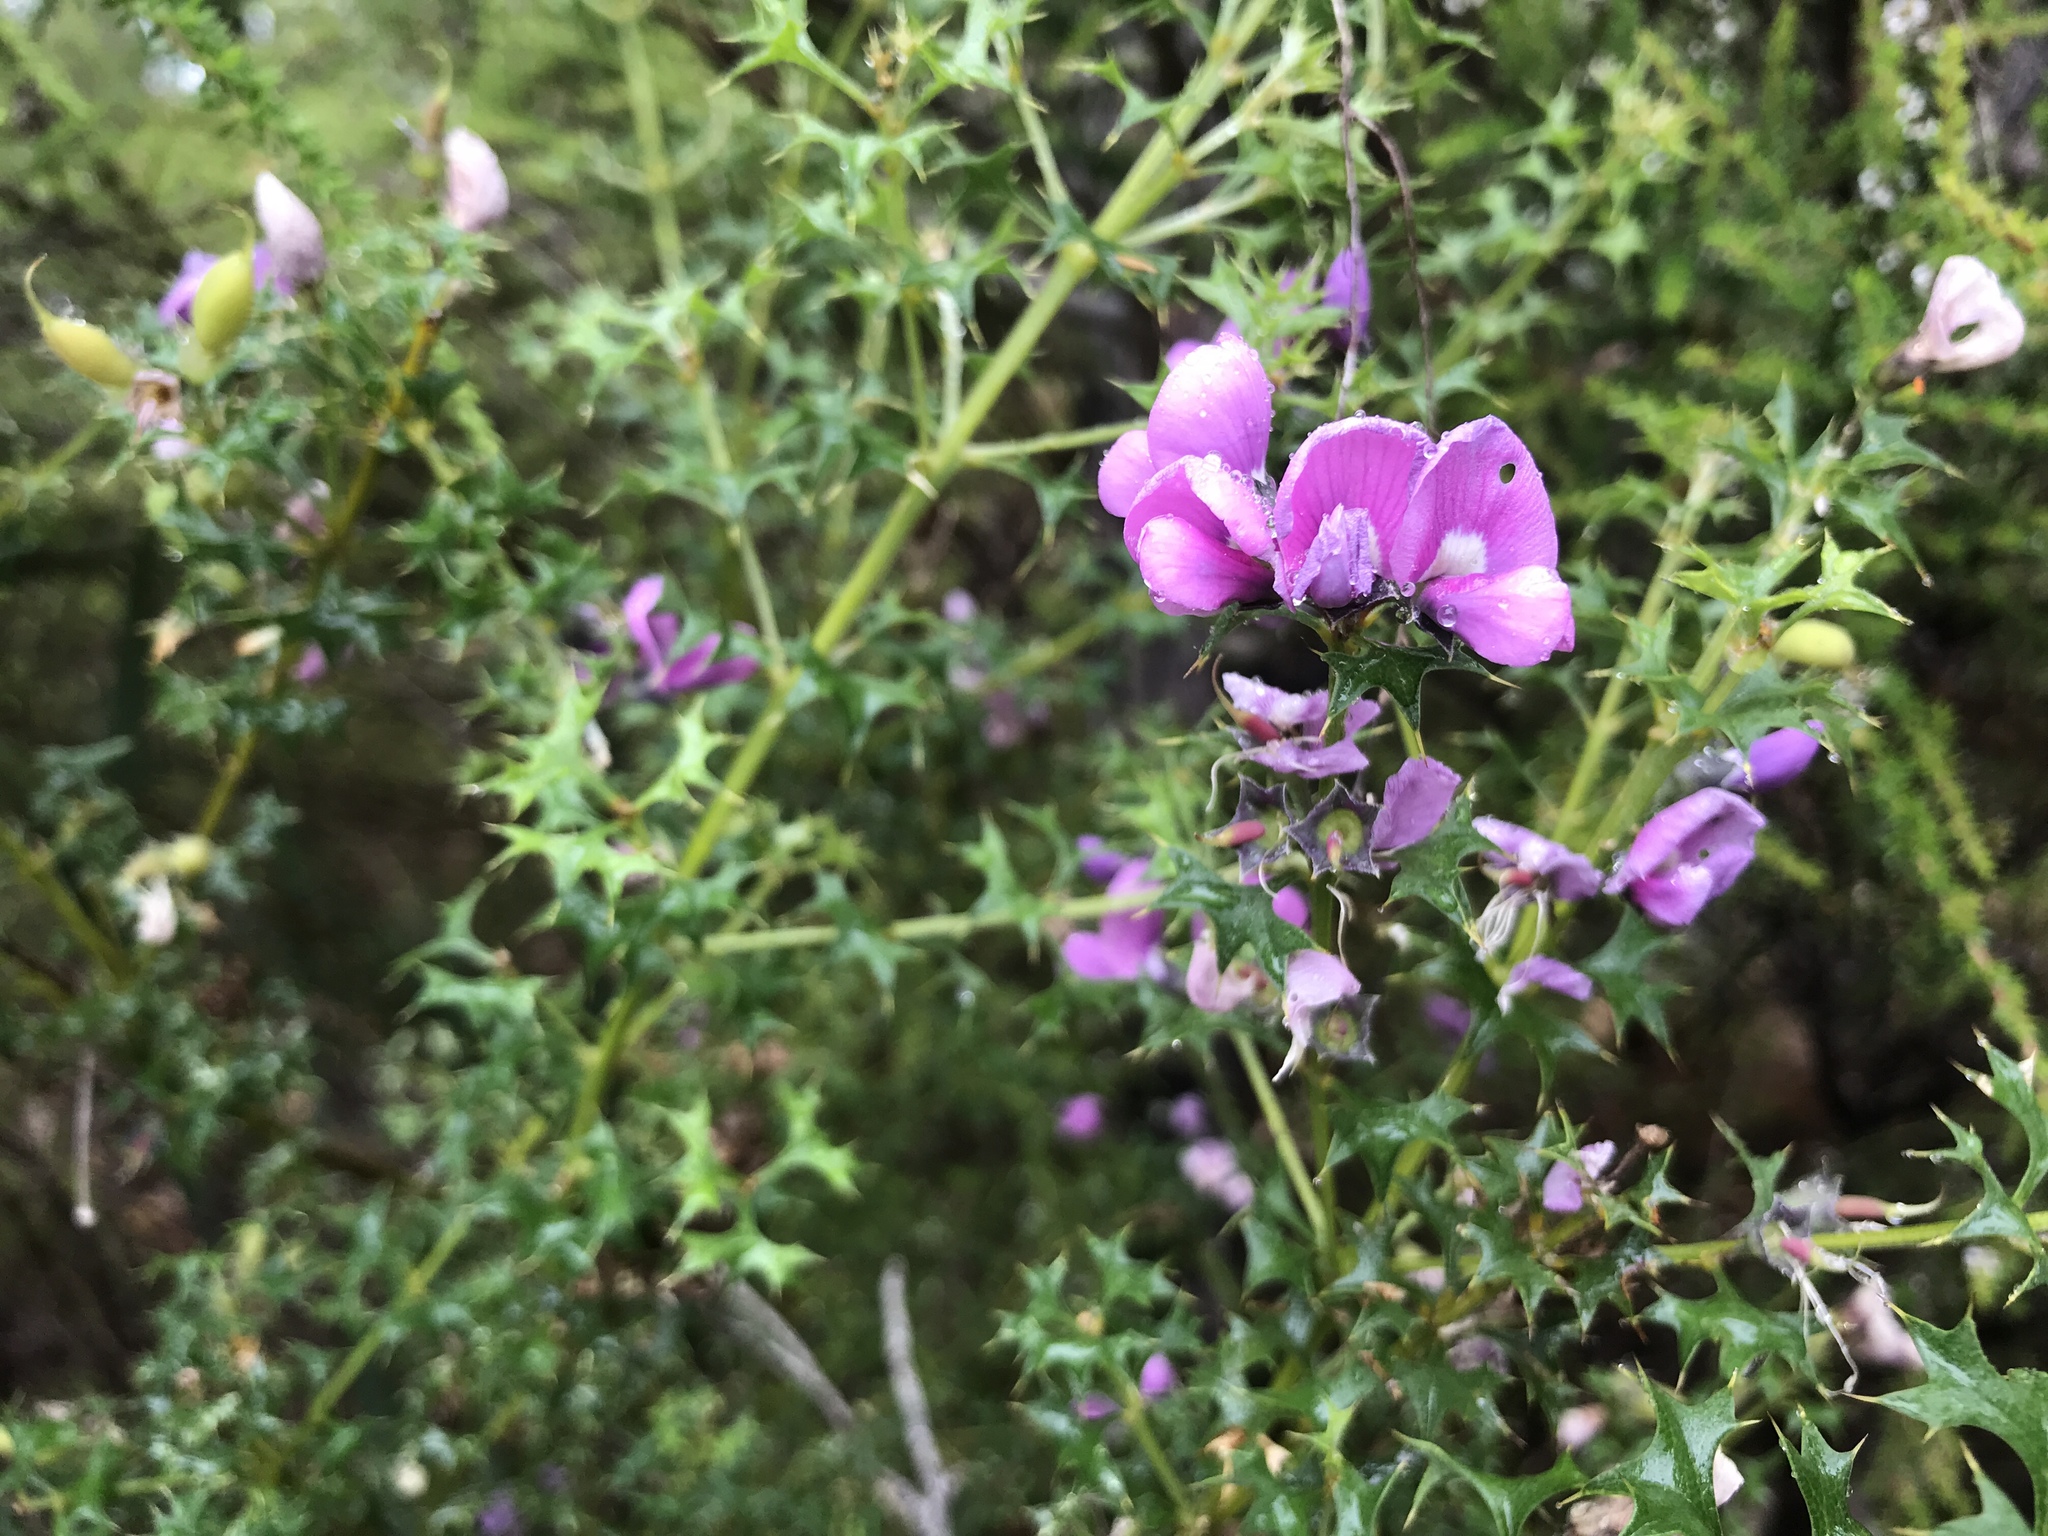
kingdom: Plantae
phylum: Tracheophyta
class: Magnoliopsida
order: Fabales
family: Fabaceae
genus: Mirbelia
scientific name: Mirbelia dilatata
